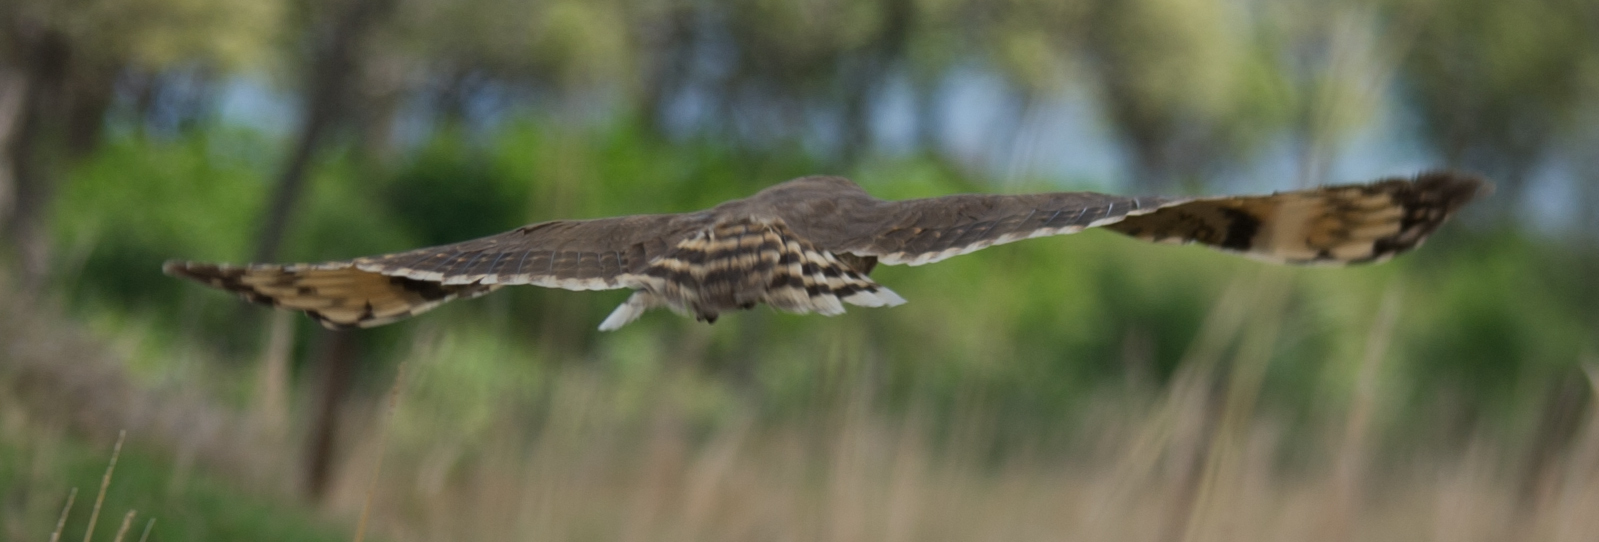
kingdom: Animalia
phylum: Chordata
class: Aves
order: Strigiformes
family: Strigidae
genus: Asio
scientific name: Asio capensis
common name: Marsh owl
